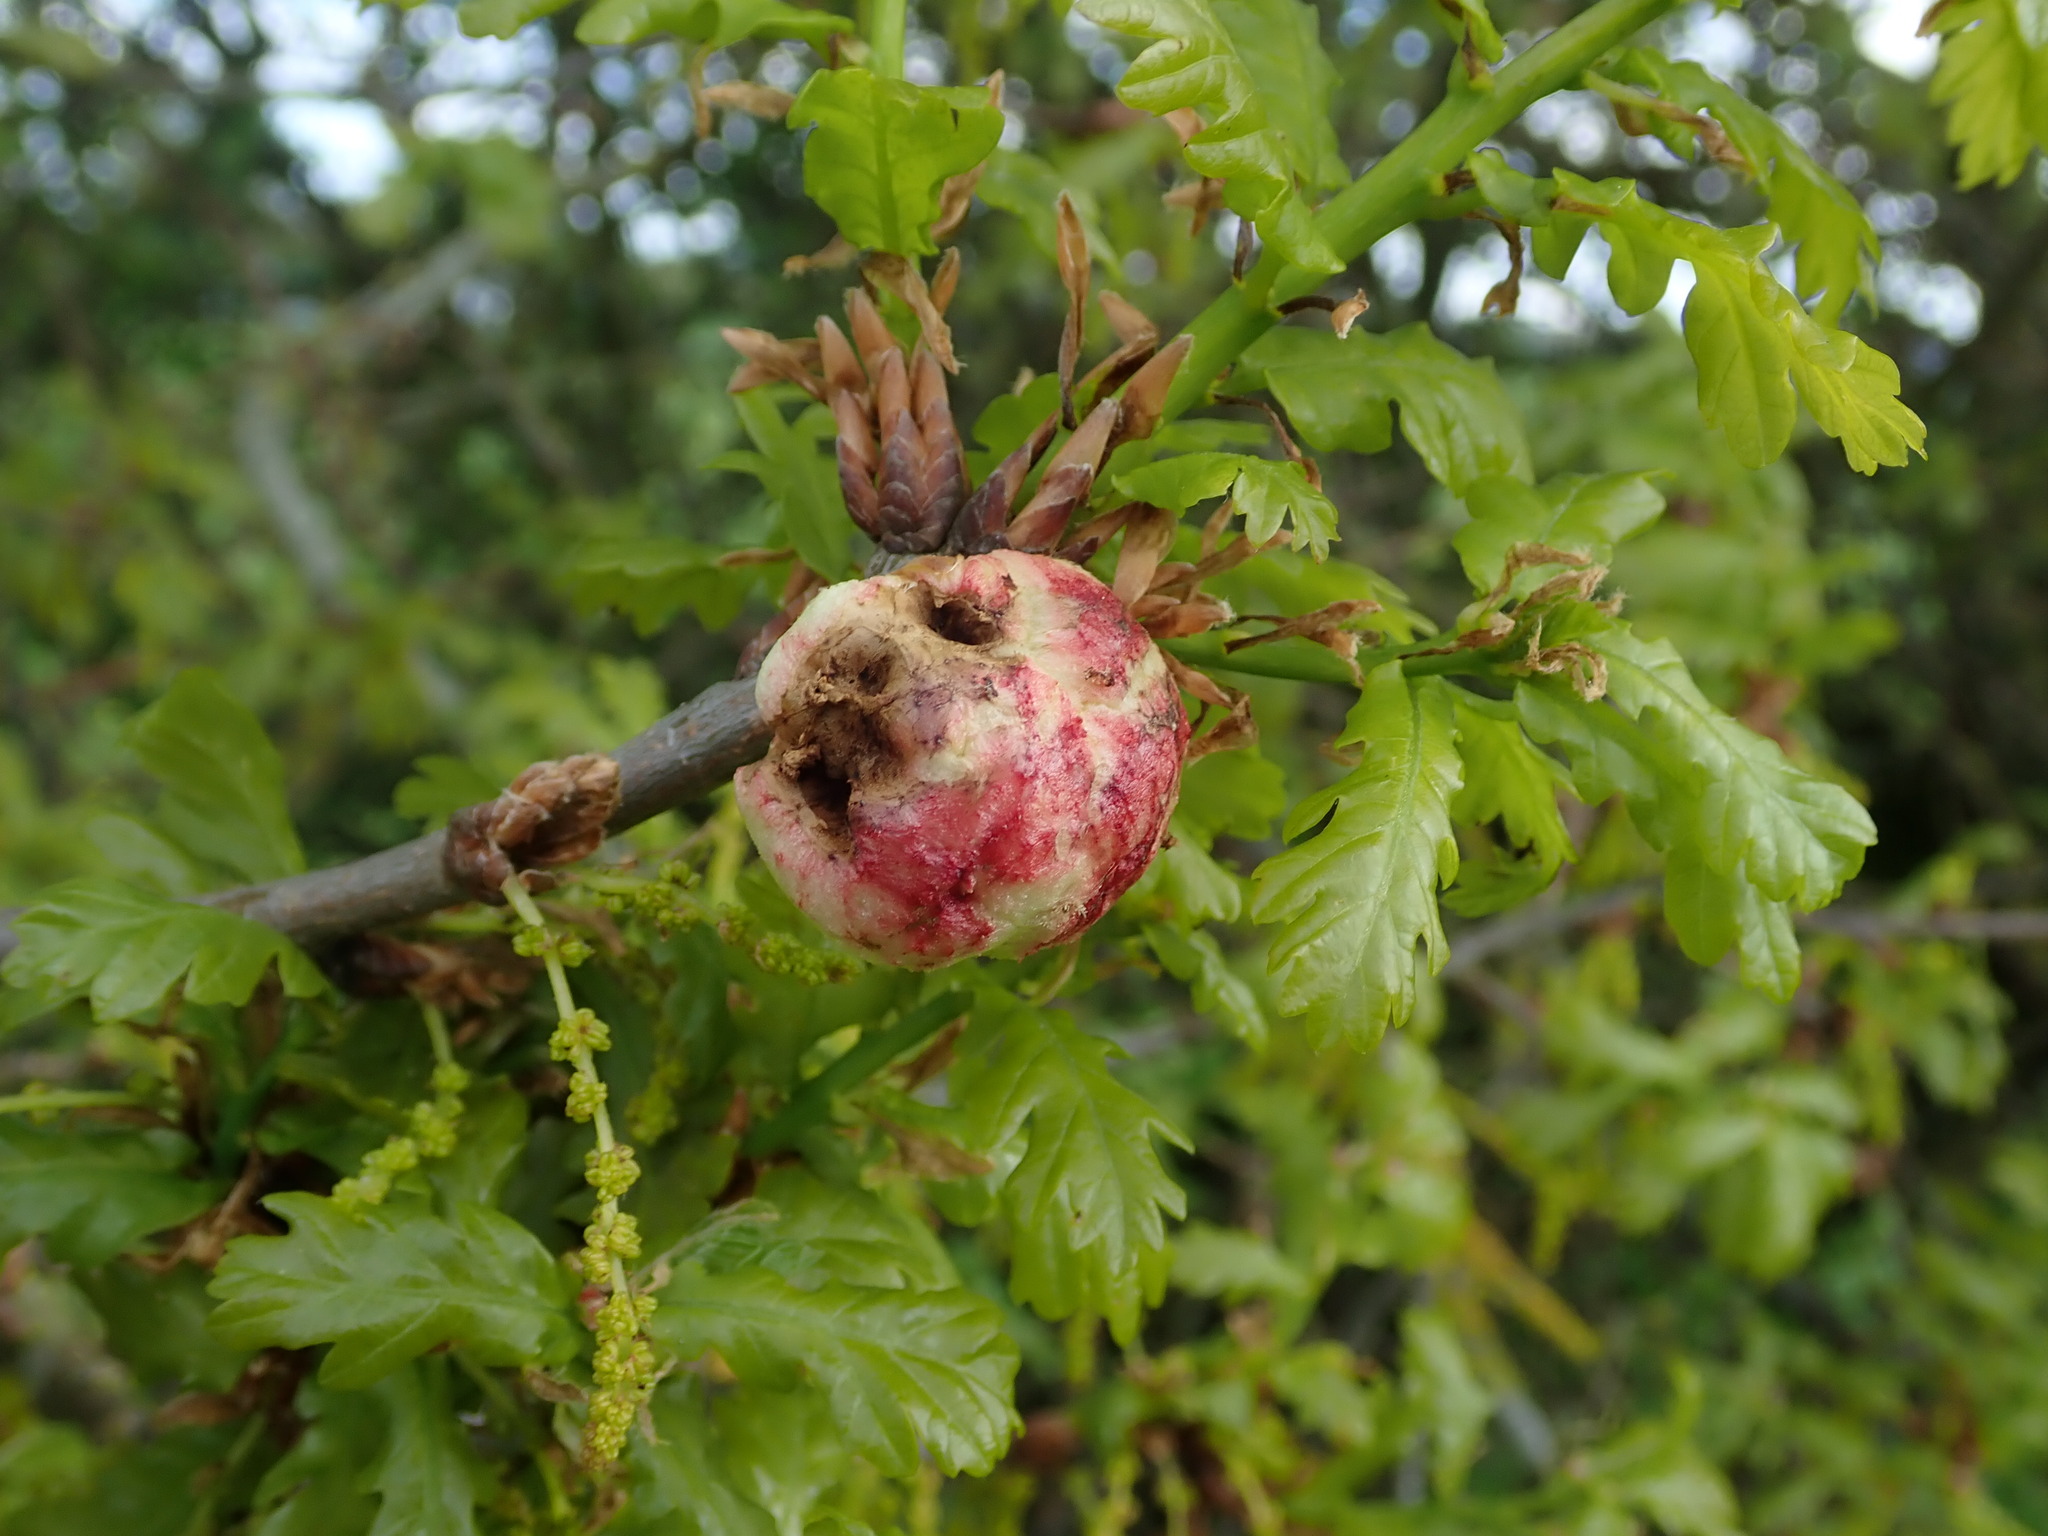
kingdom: Animalia
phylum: Arthropoda
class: Insecta
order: Hymenoptera
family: Cynipidae
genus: Biorhiza
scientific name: Biorhiza pallida
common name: Oak apple
